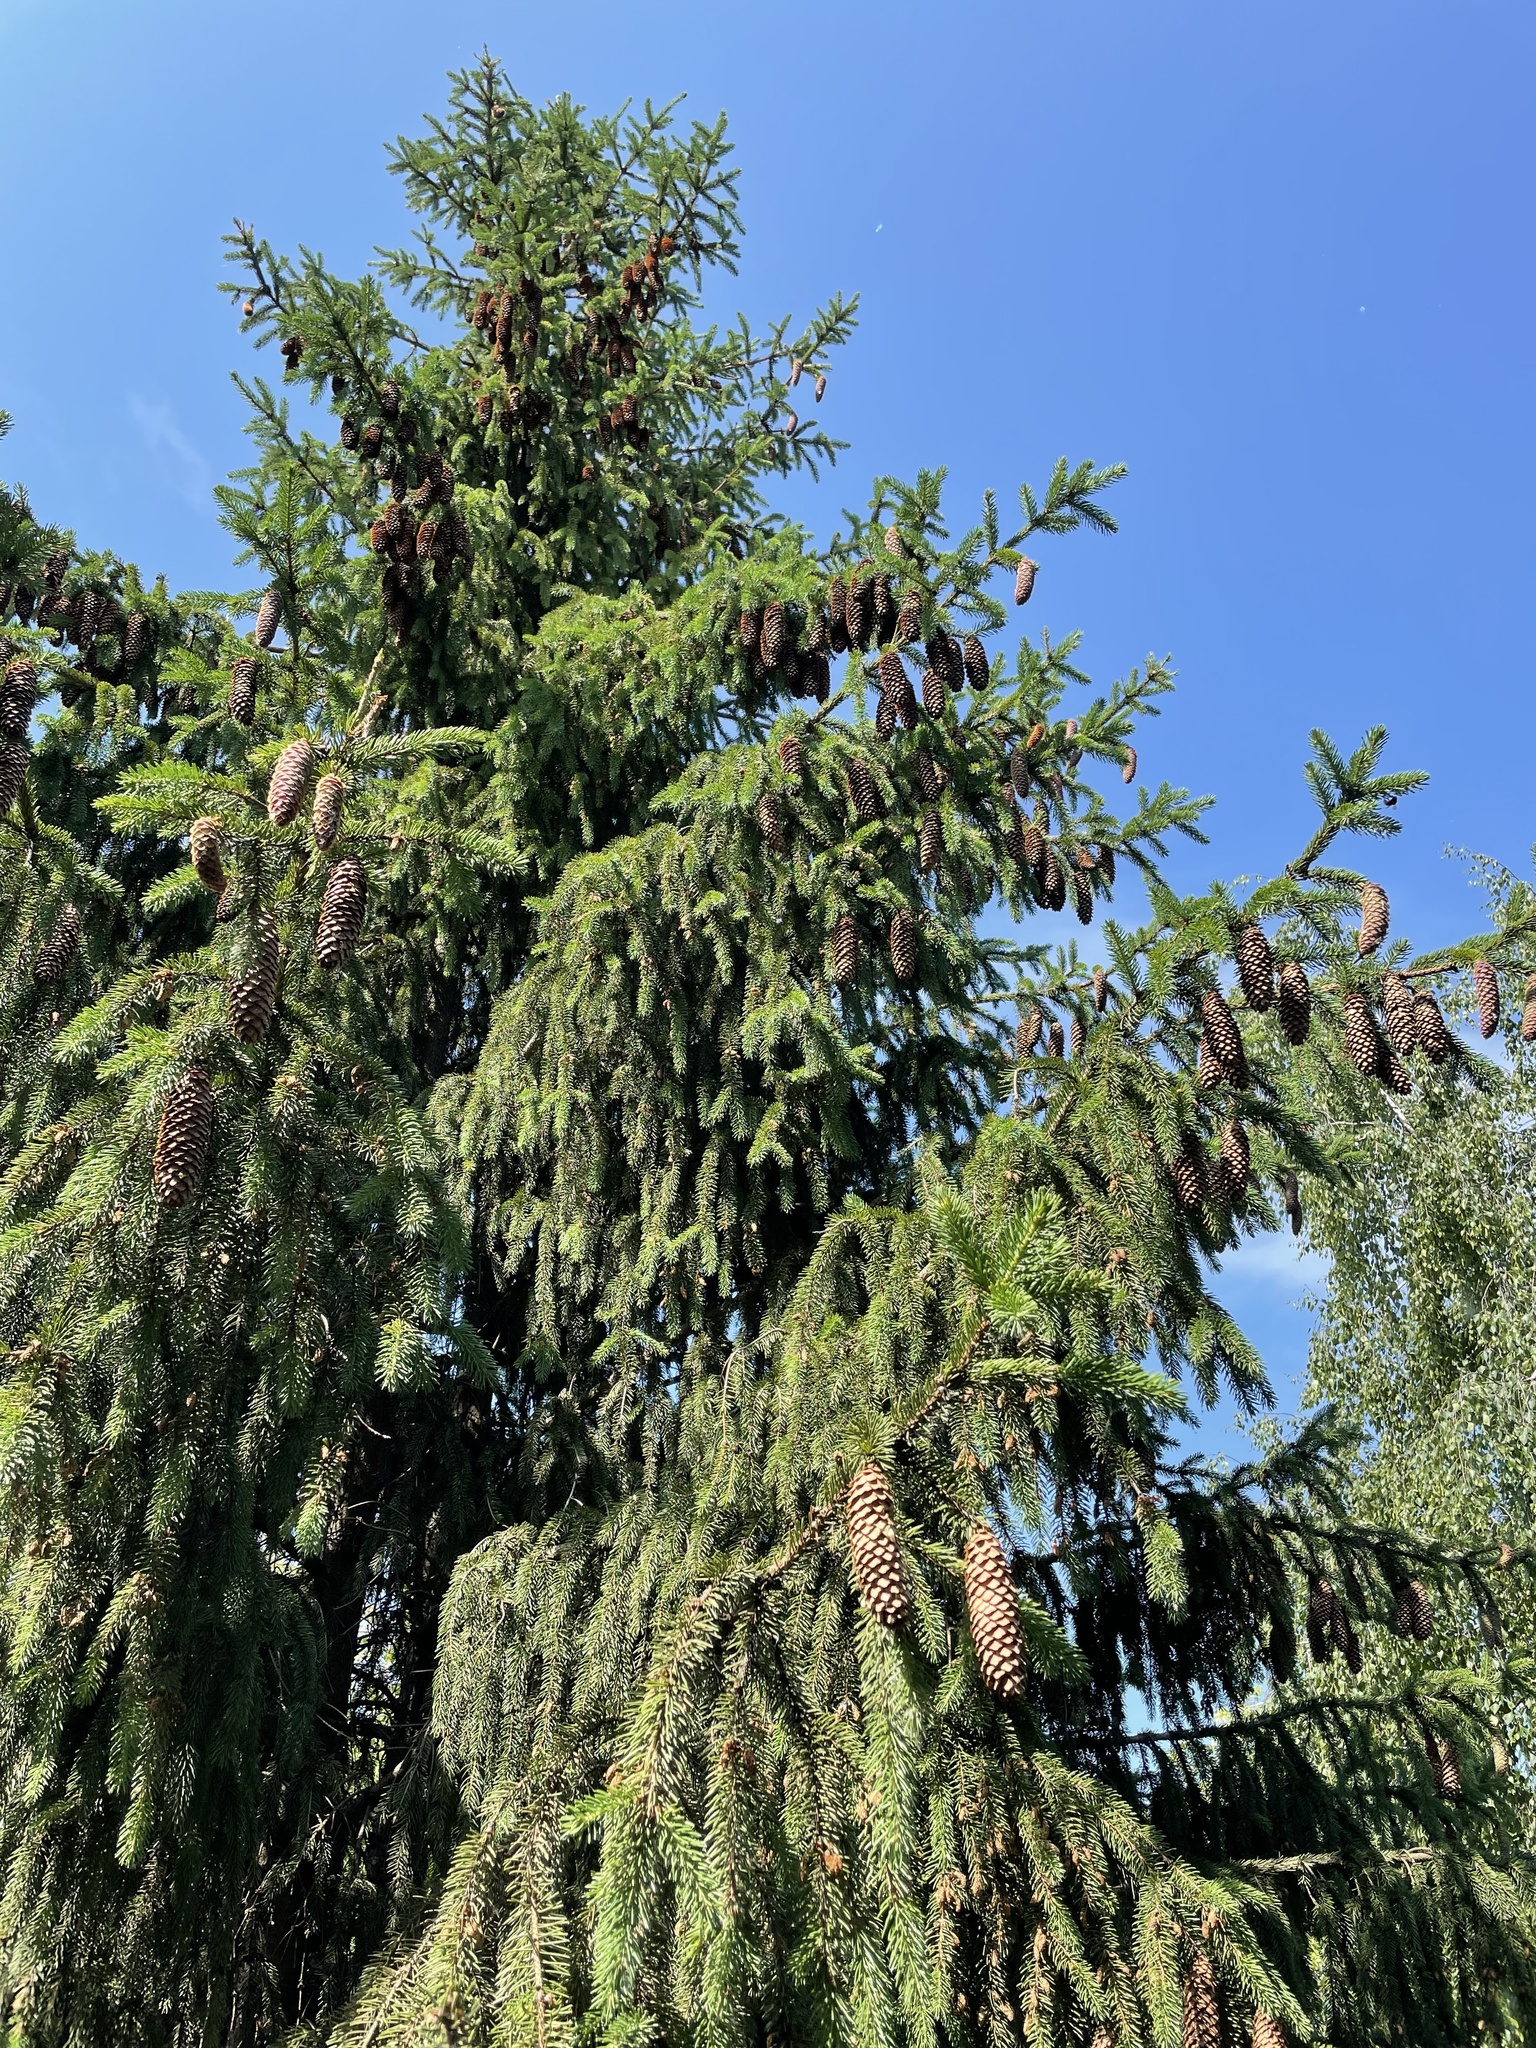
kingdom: Plantae
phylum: Tracheophyta
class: Pinopsida
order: Pinales
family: Pinaceae
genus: Picea
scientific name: Picea abies
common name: Norway spruce
